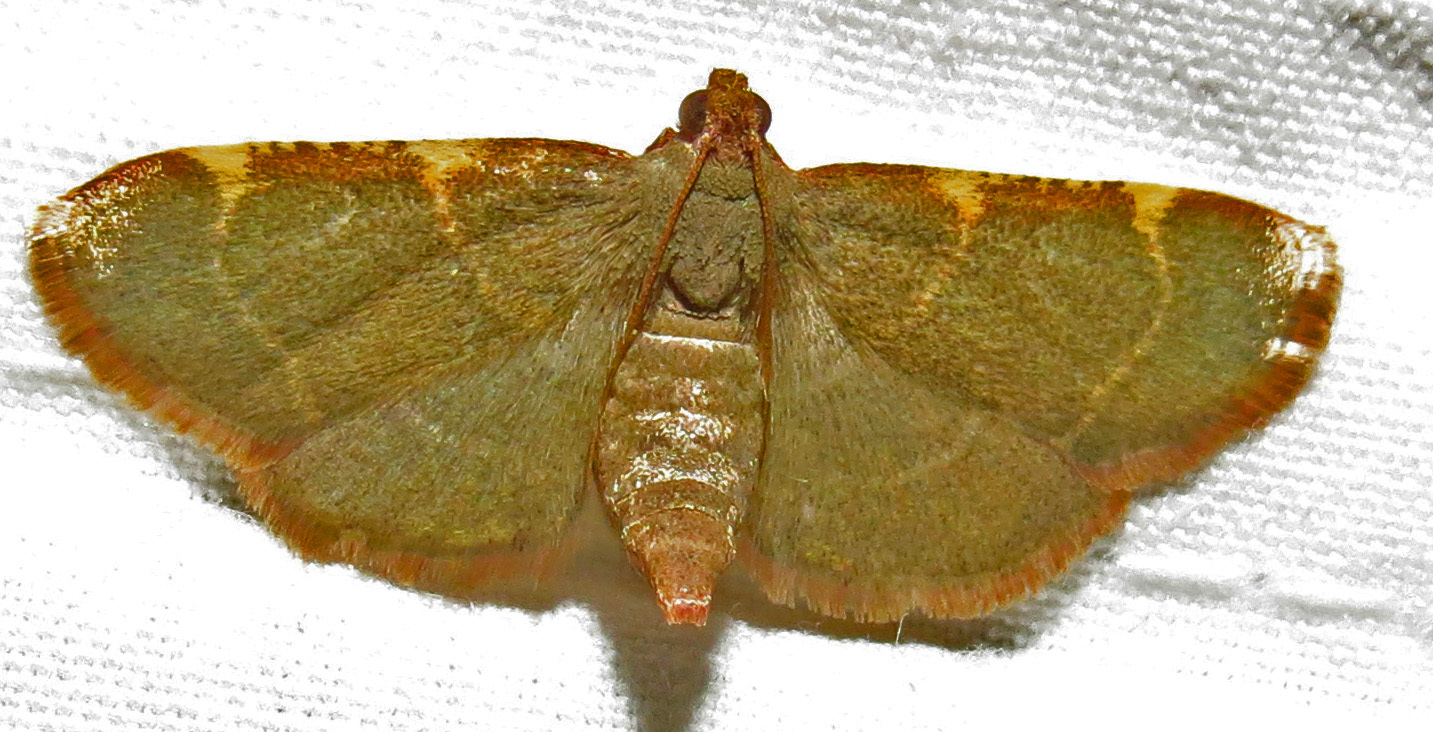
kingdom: Animalia
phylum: Arthropoda
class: Insecta
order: Lepidoptera
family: Pyralidae
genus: Hypsopygia
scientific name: Hypsopygia binodulalis
